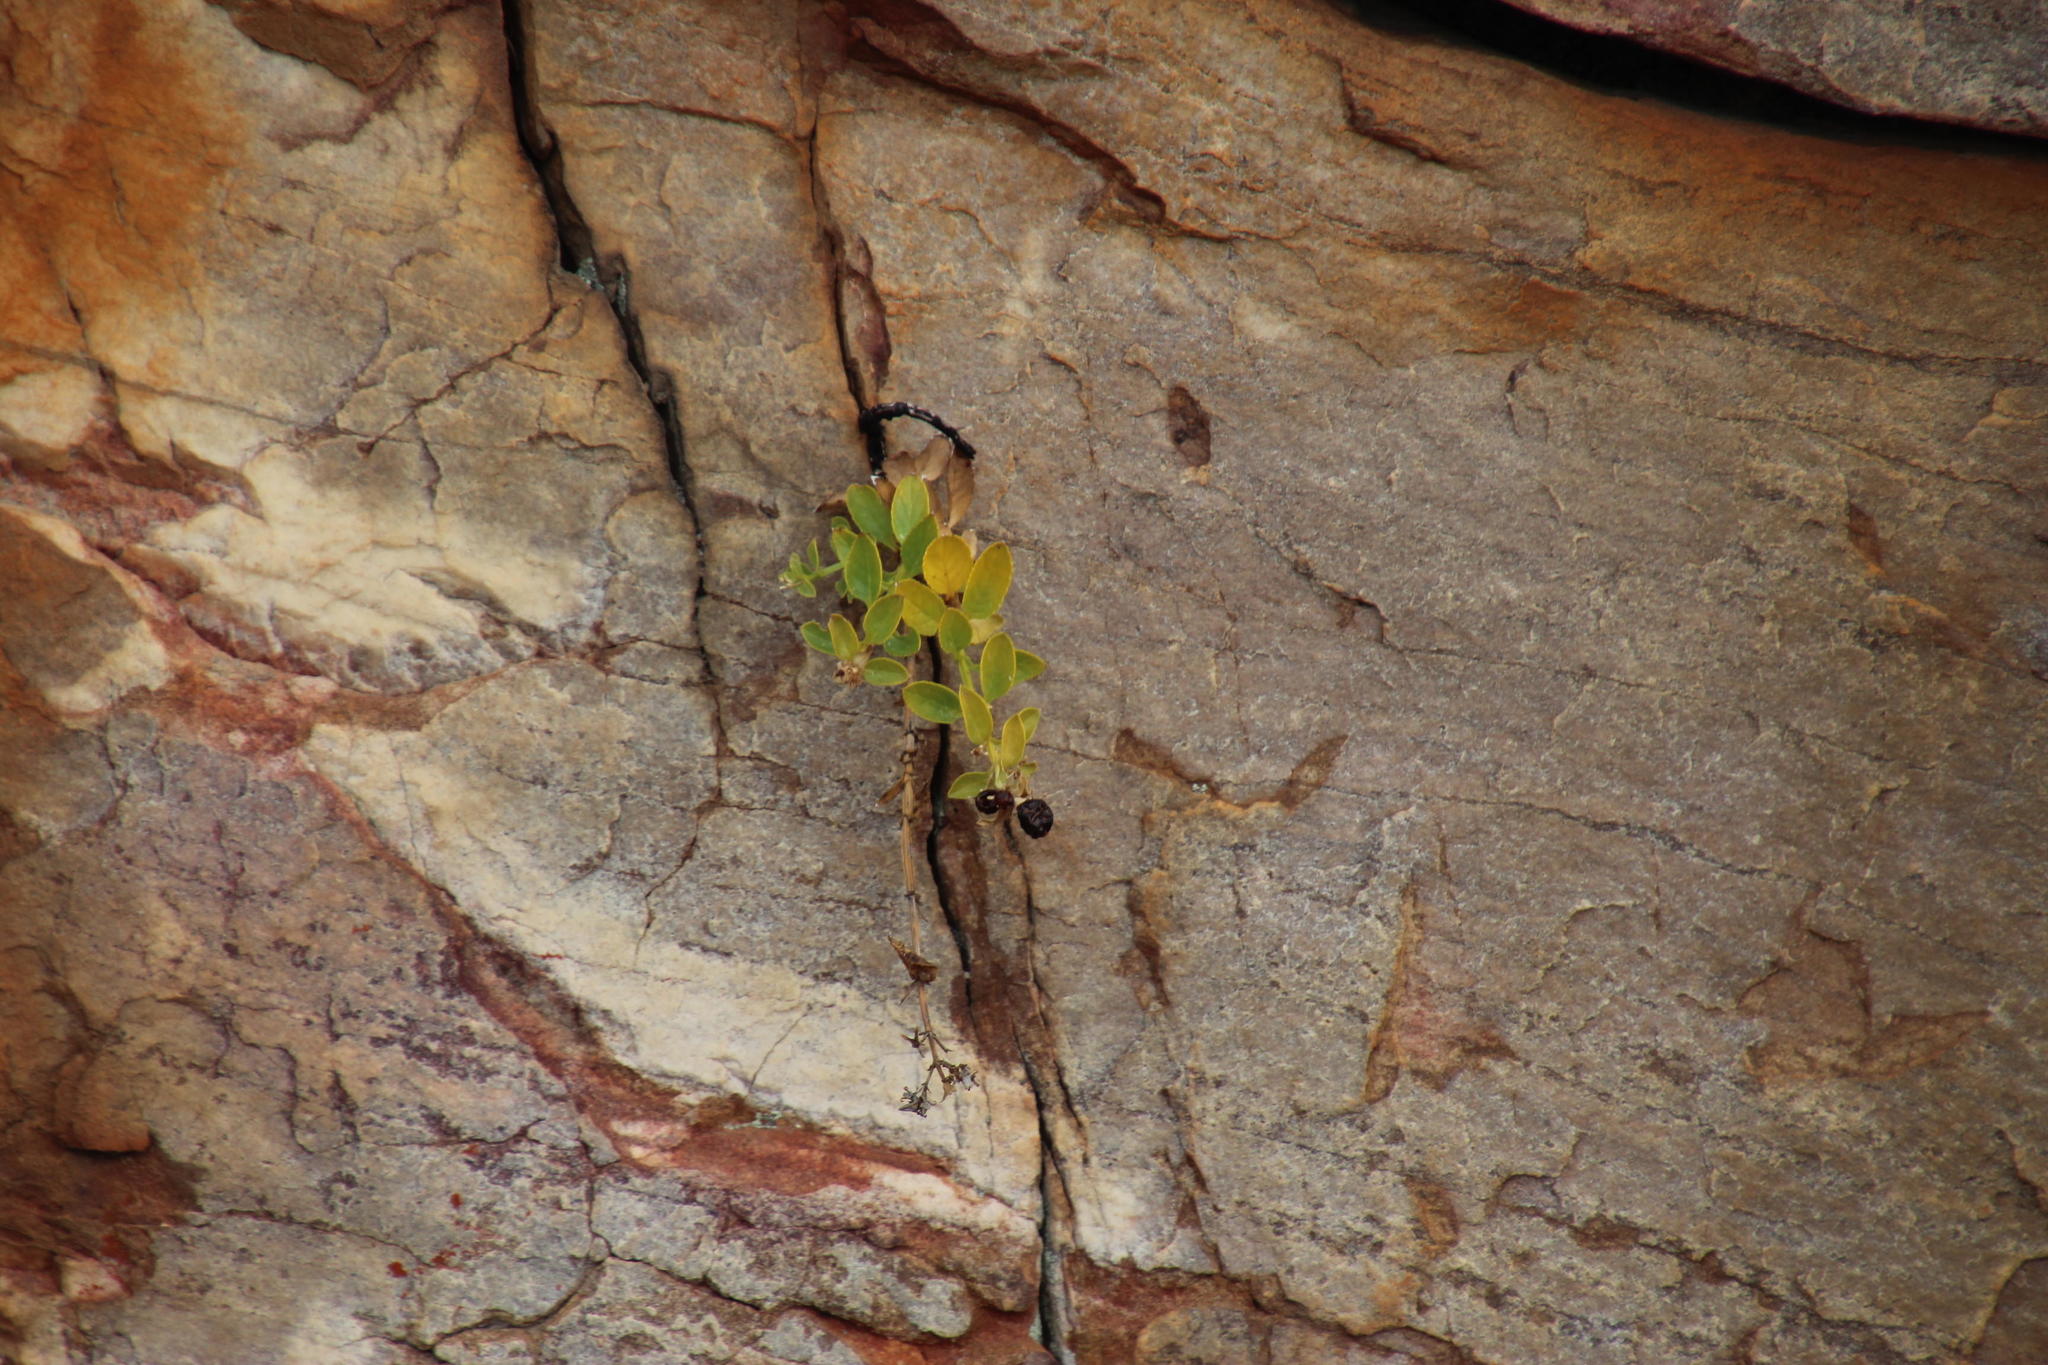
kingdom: Plantae
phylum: Tracheophyta
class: Magnoliopsida
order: Lamiales
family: Scrophulariaceae
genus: Teedia
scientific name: Teedia lucida
